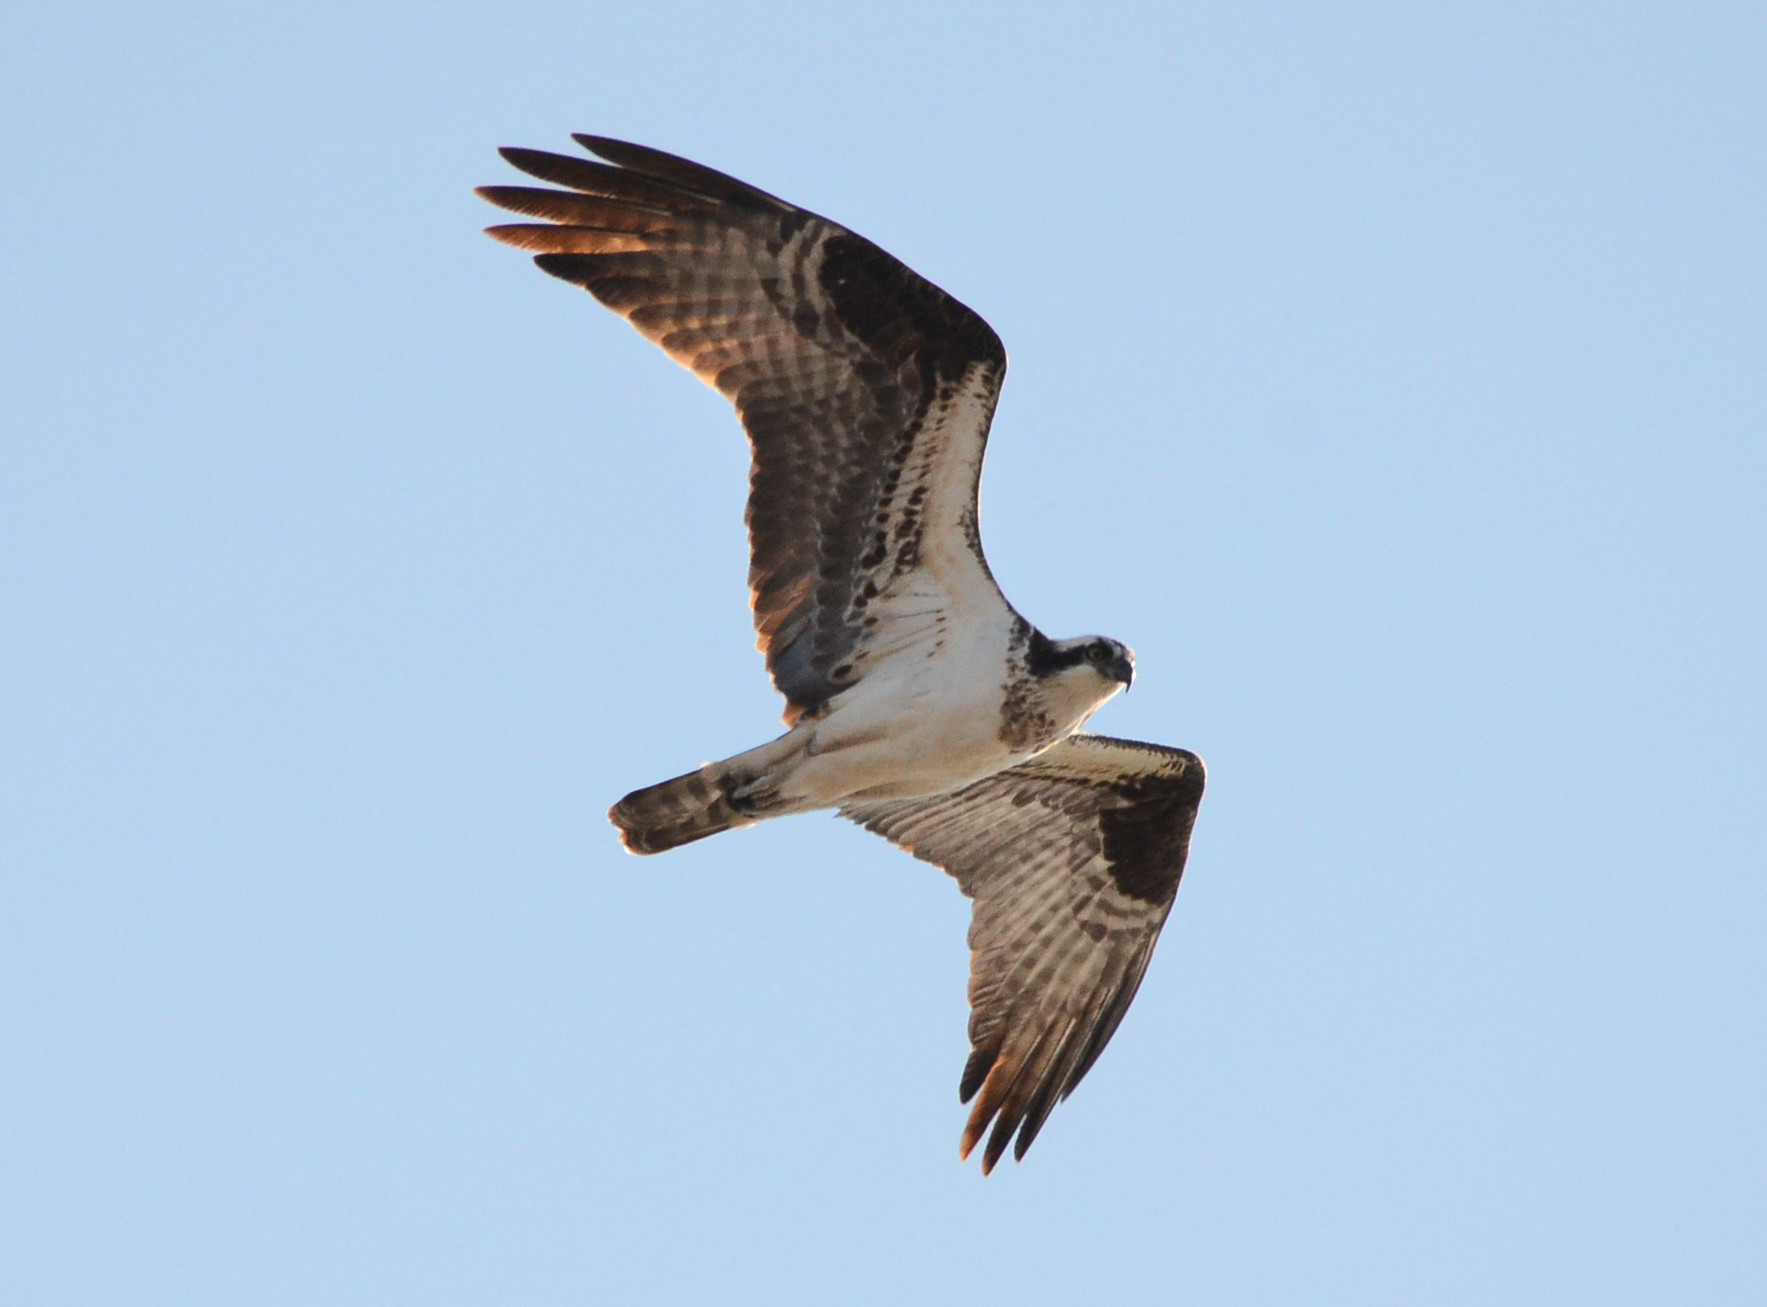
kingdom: Animalia
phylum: Chordata
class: Aves
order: Accipitriformes
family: Pandionidae
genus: Pandion
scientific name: Pandion haliaetus
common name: Osprey
